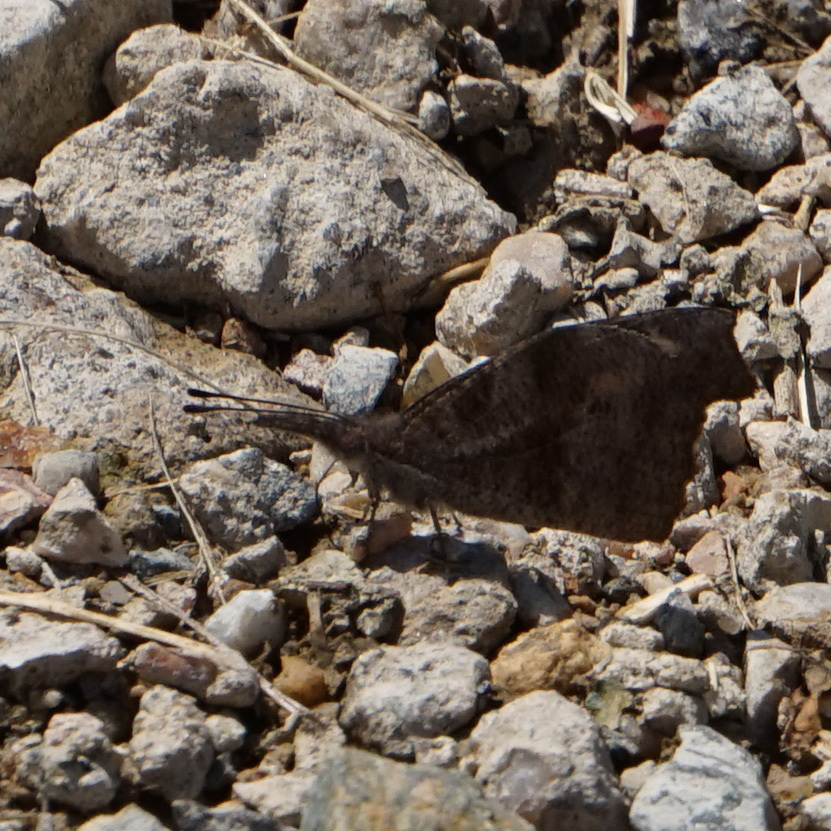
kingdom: Animalia
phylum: Arthropoda
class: Insecta
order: Lepidoptera
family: Nymphalidae
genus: Libytheana
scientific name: Libytheana carinenta
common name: American snout
